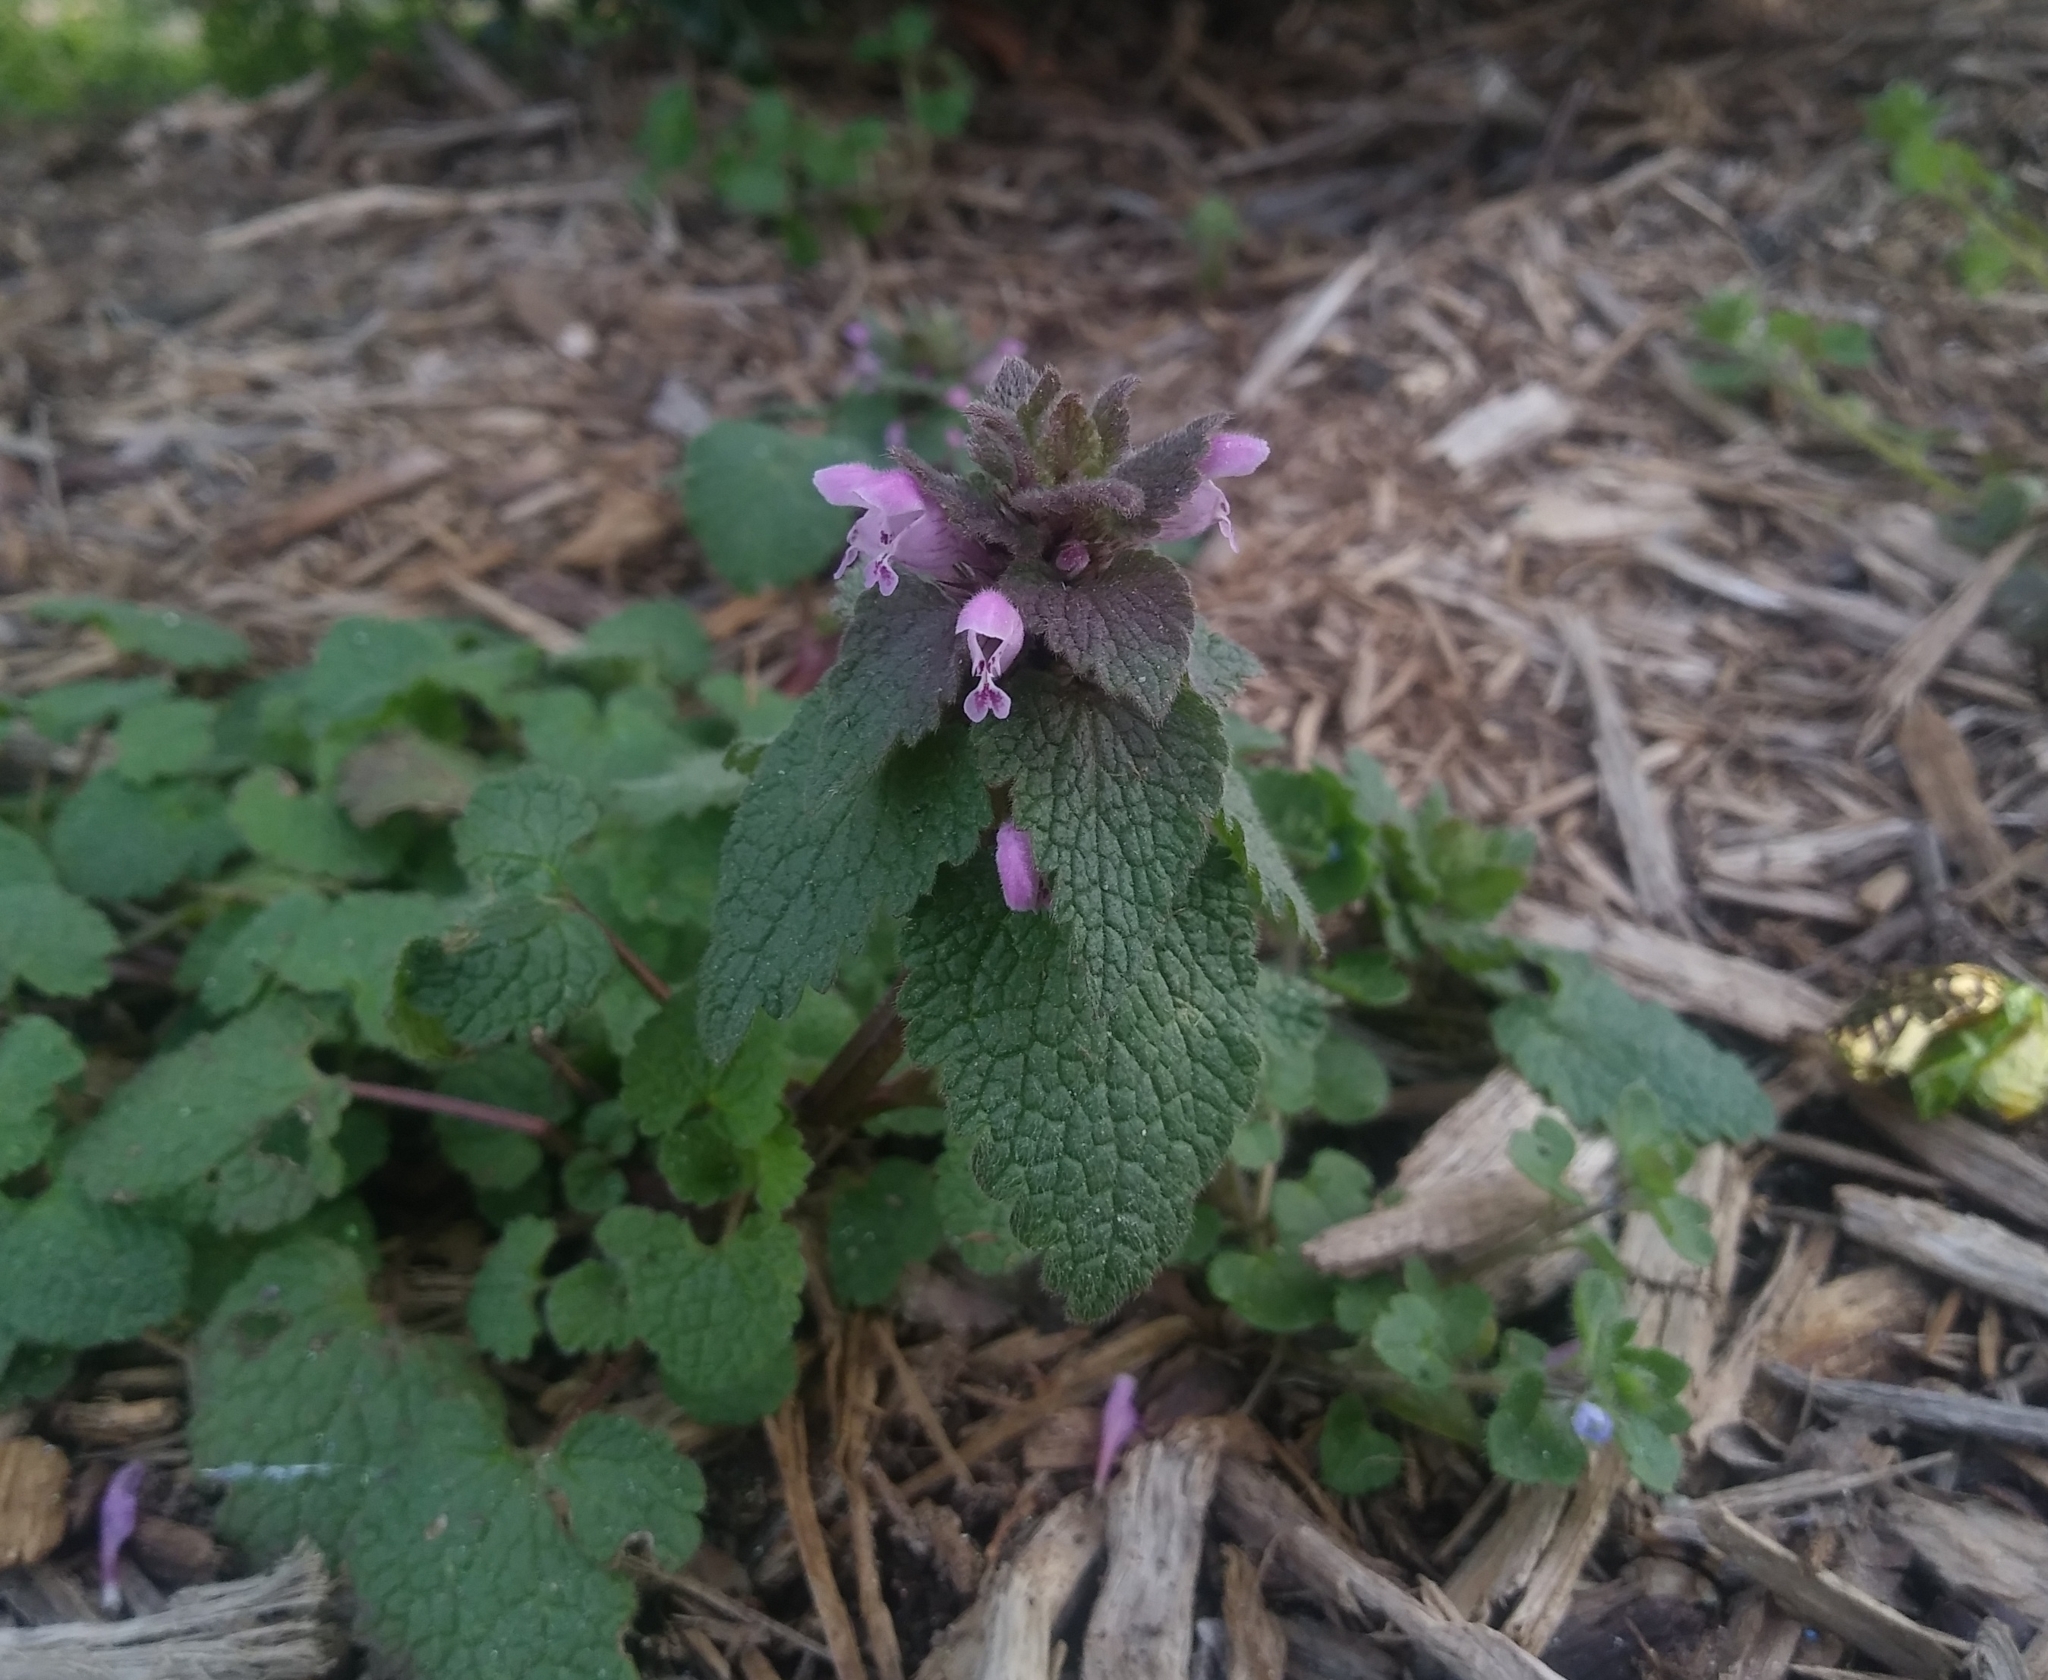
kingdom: Plantae
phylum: Tracheophyta
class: Magnoliopsida
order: Lamiales
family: Lamiaceae
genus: Lamium
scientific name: Lamium purpureum
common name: Red dead-nettle
